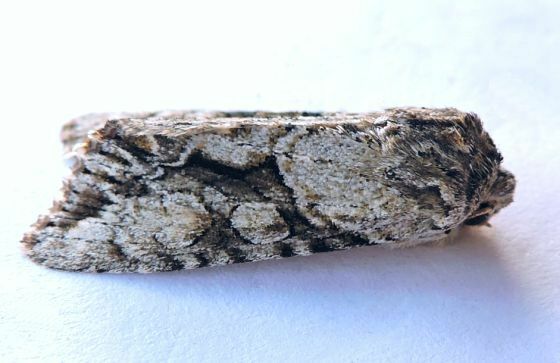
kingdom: Animalia
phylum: Arthropoda
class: Insecta
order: Lepidoptera
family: Noctuidae
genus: Achatia
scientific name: Achatia distincta
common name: Distinct quaker
